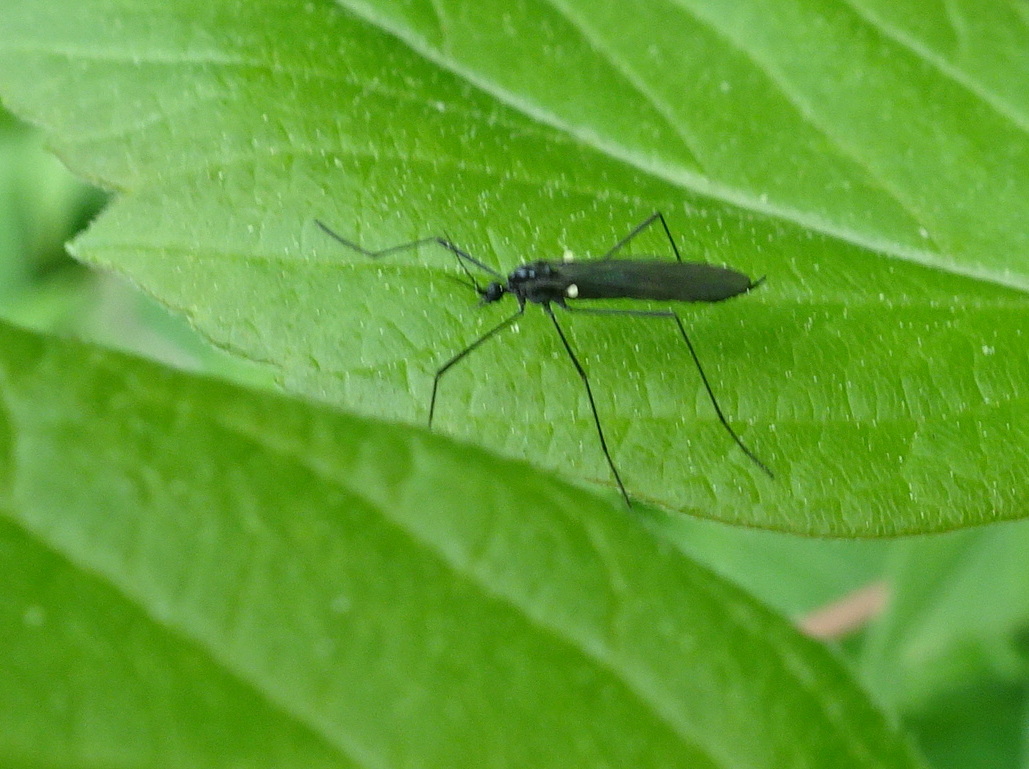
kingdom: Animalia
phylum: Arthropoda
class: Insecta
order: Diptera
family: Limoniidae
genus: Gnophomyia
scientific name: Gnophomyia tristissima
